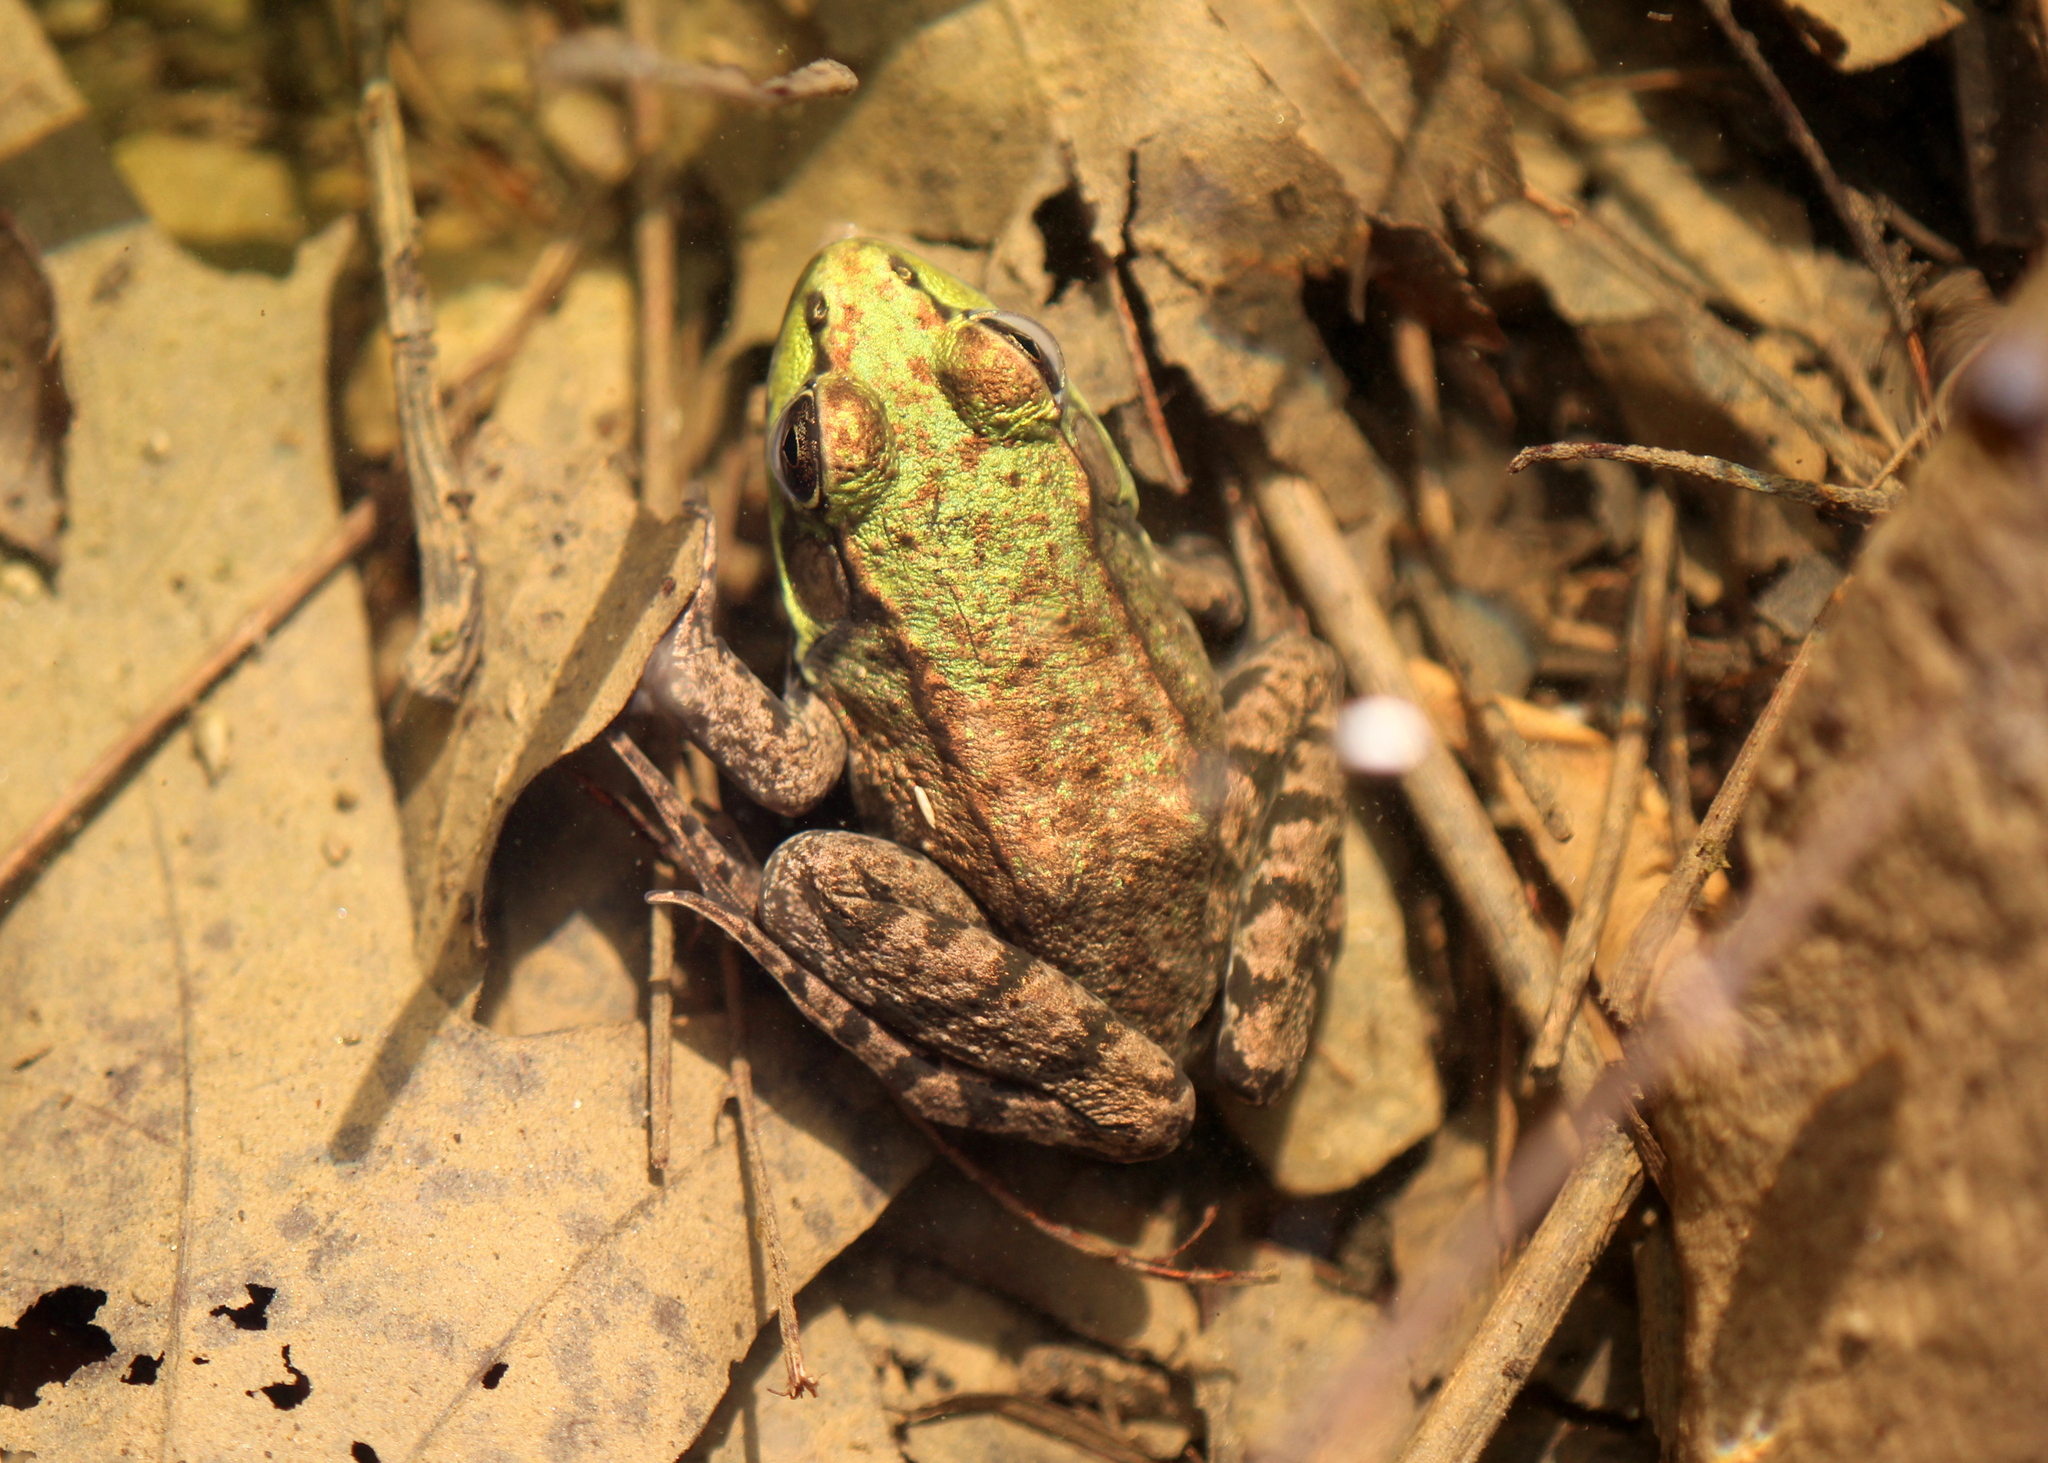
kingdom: Animalia
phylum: Chordata
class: Amphibia
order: Anura
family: Ranidae
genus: Lithobates
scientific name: Lithobates clamitans
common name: Green frog
